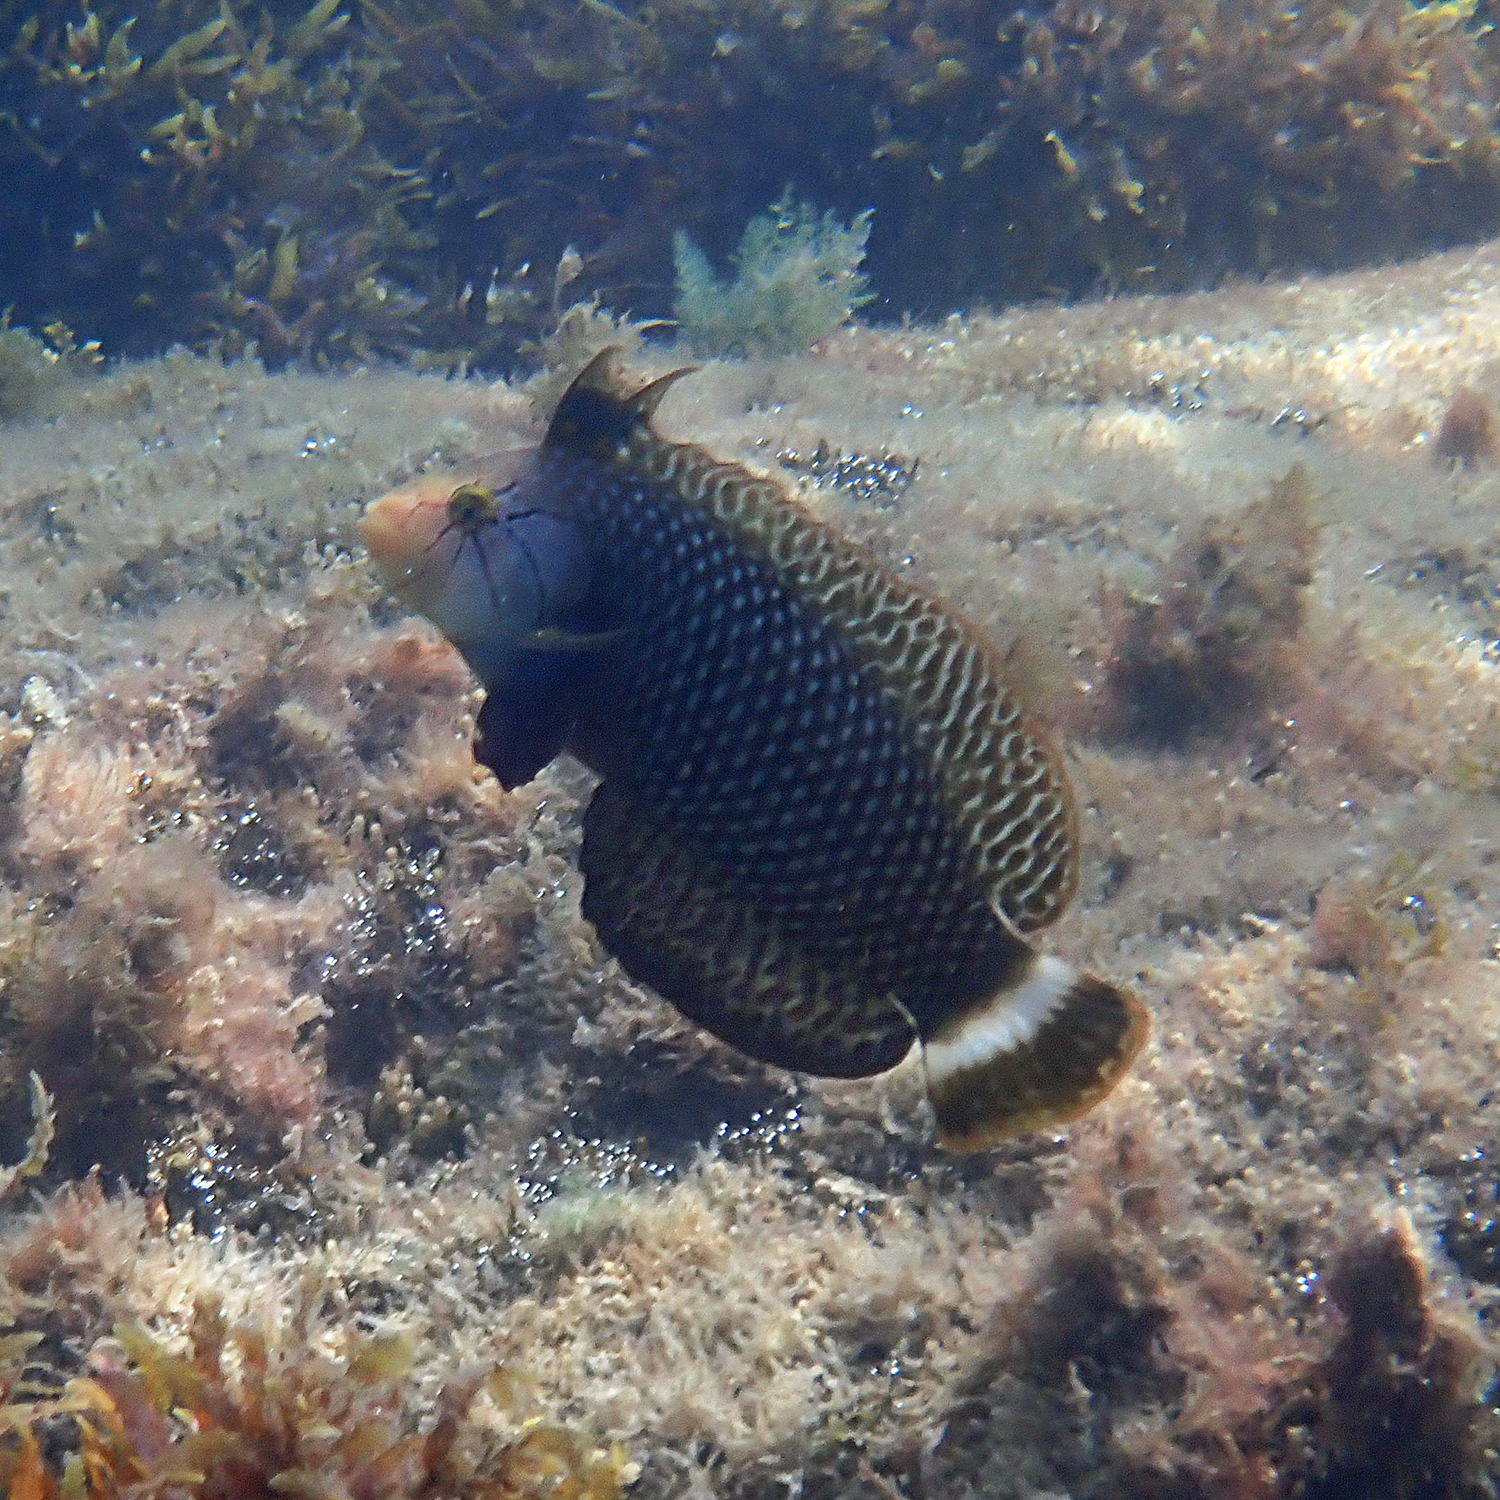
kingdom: Animalia
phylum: Chordata
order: Perciformes
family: Labridae
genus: Novaculichthys
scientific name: Novaculichthys taeniourus
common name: Rockmover wrasse
